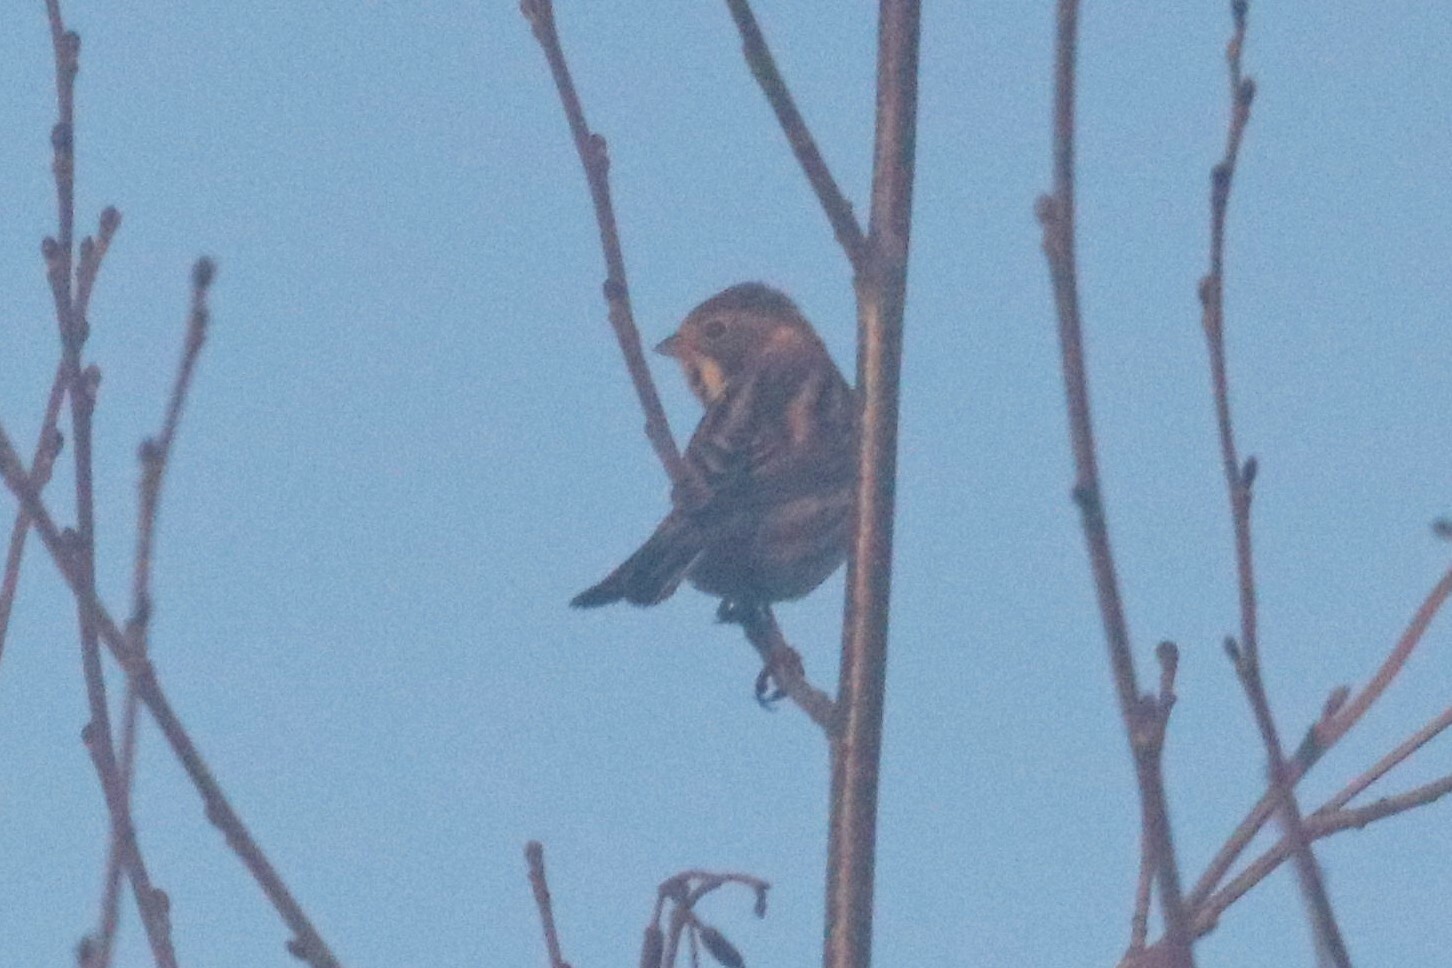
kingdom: Animalia
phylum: Chordata
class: Aves
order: Passeriformes
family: Emberizidae
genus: Emberiza
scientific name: Emberiza schoeniclus
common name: Reed bunting
